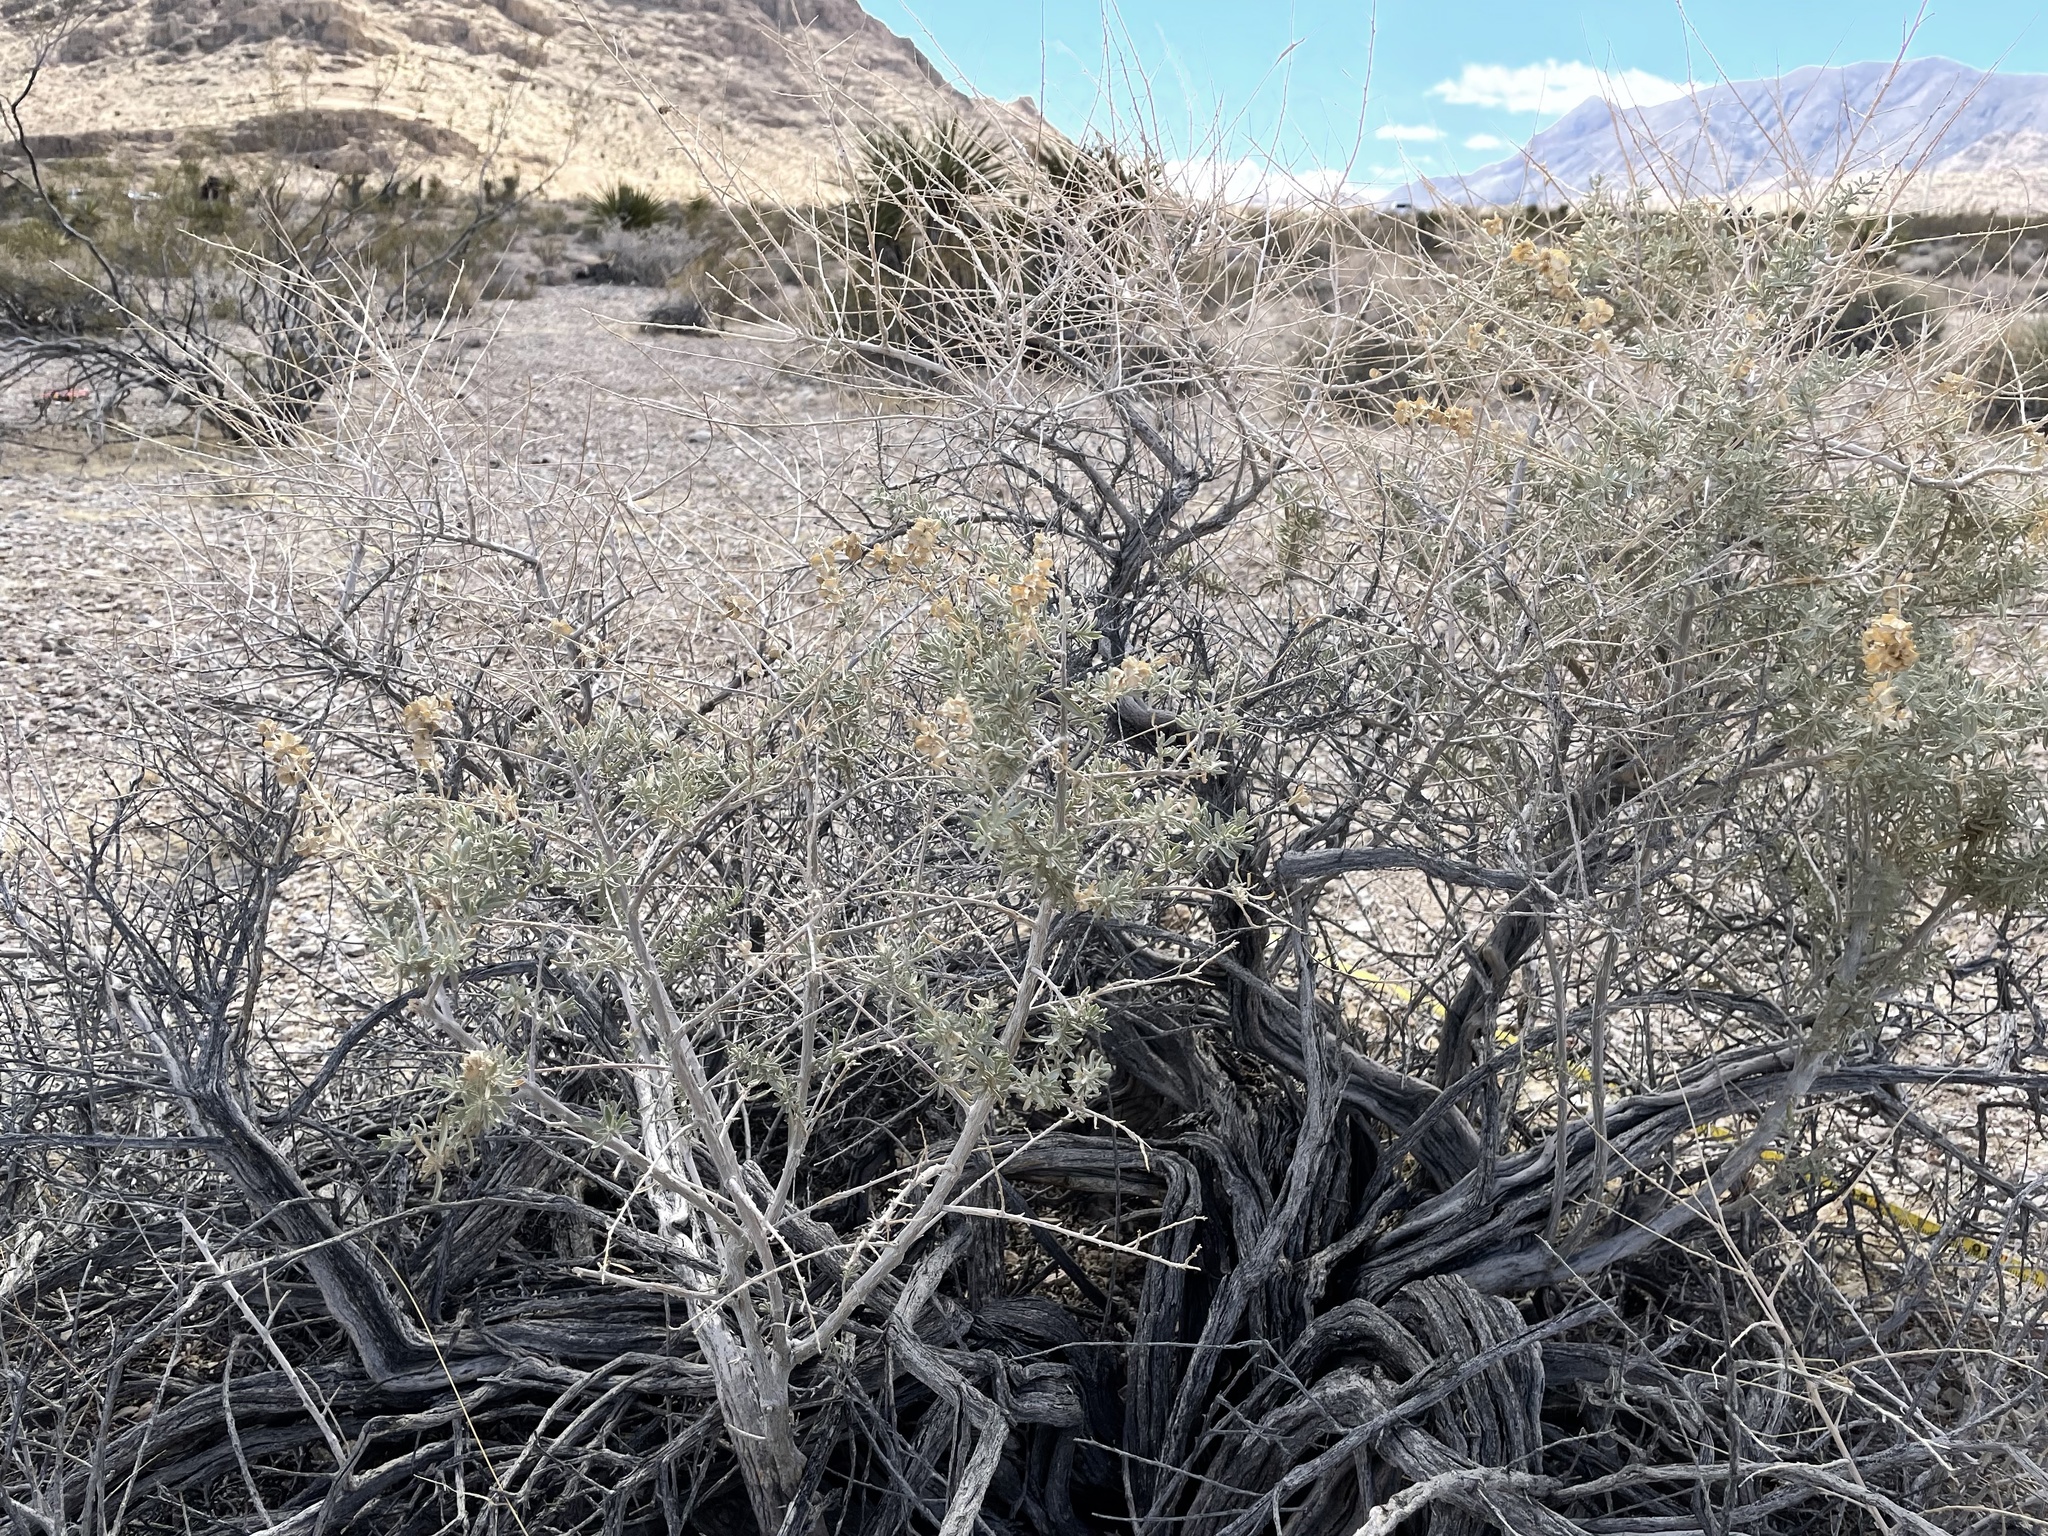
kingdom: Plantae
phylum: Tracheophyta
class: Magnoliopsida
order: Caryophyllales
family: Amaranthaceae
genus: Atriplex
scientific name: Atriplex canescens
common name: Four-wing saltbush
